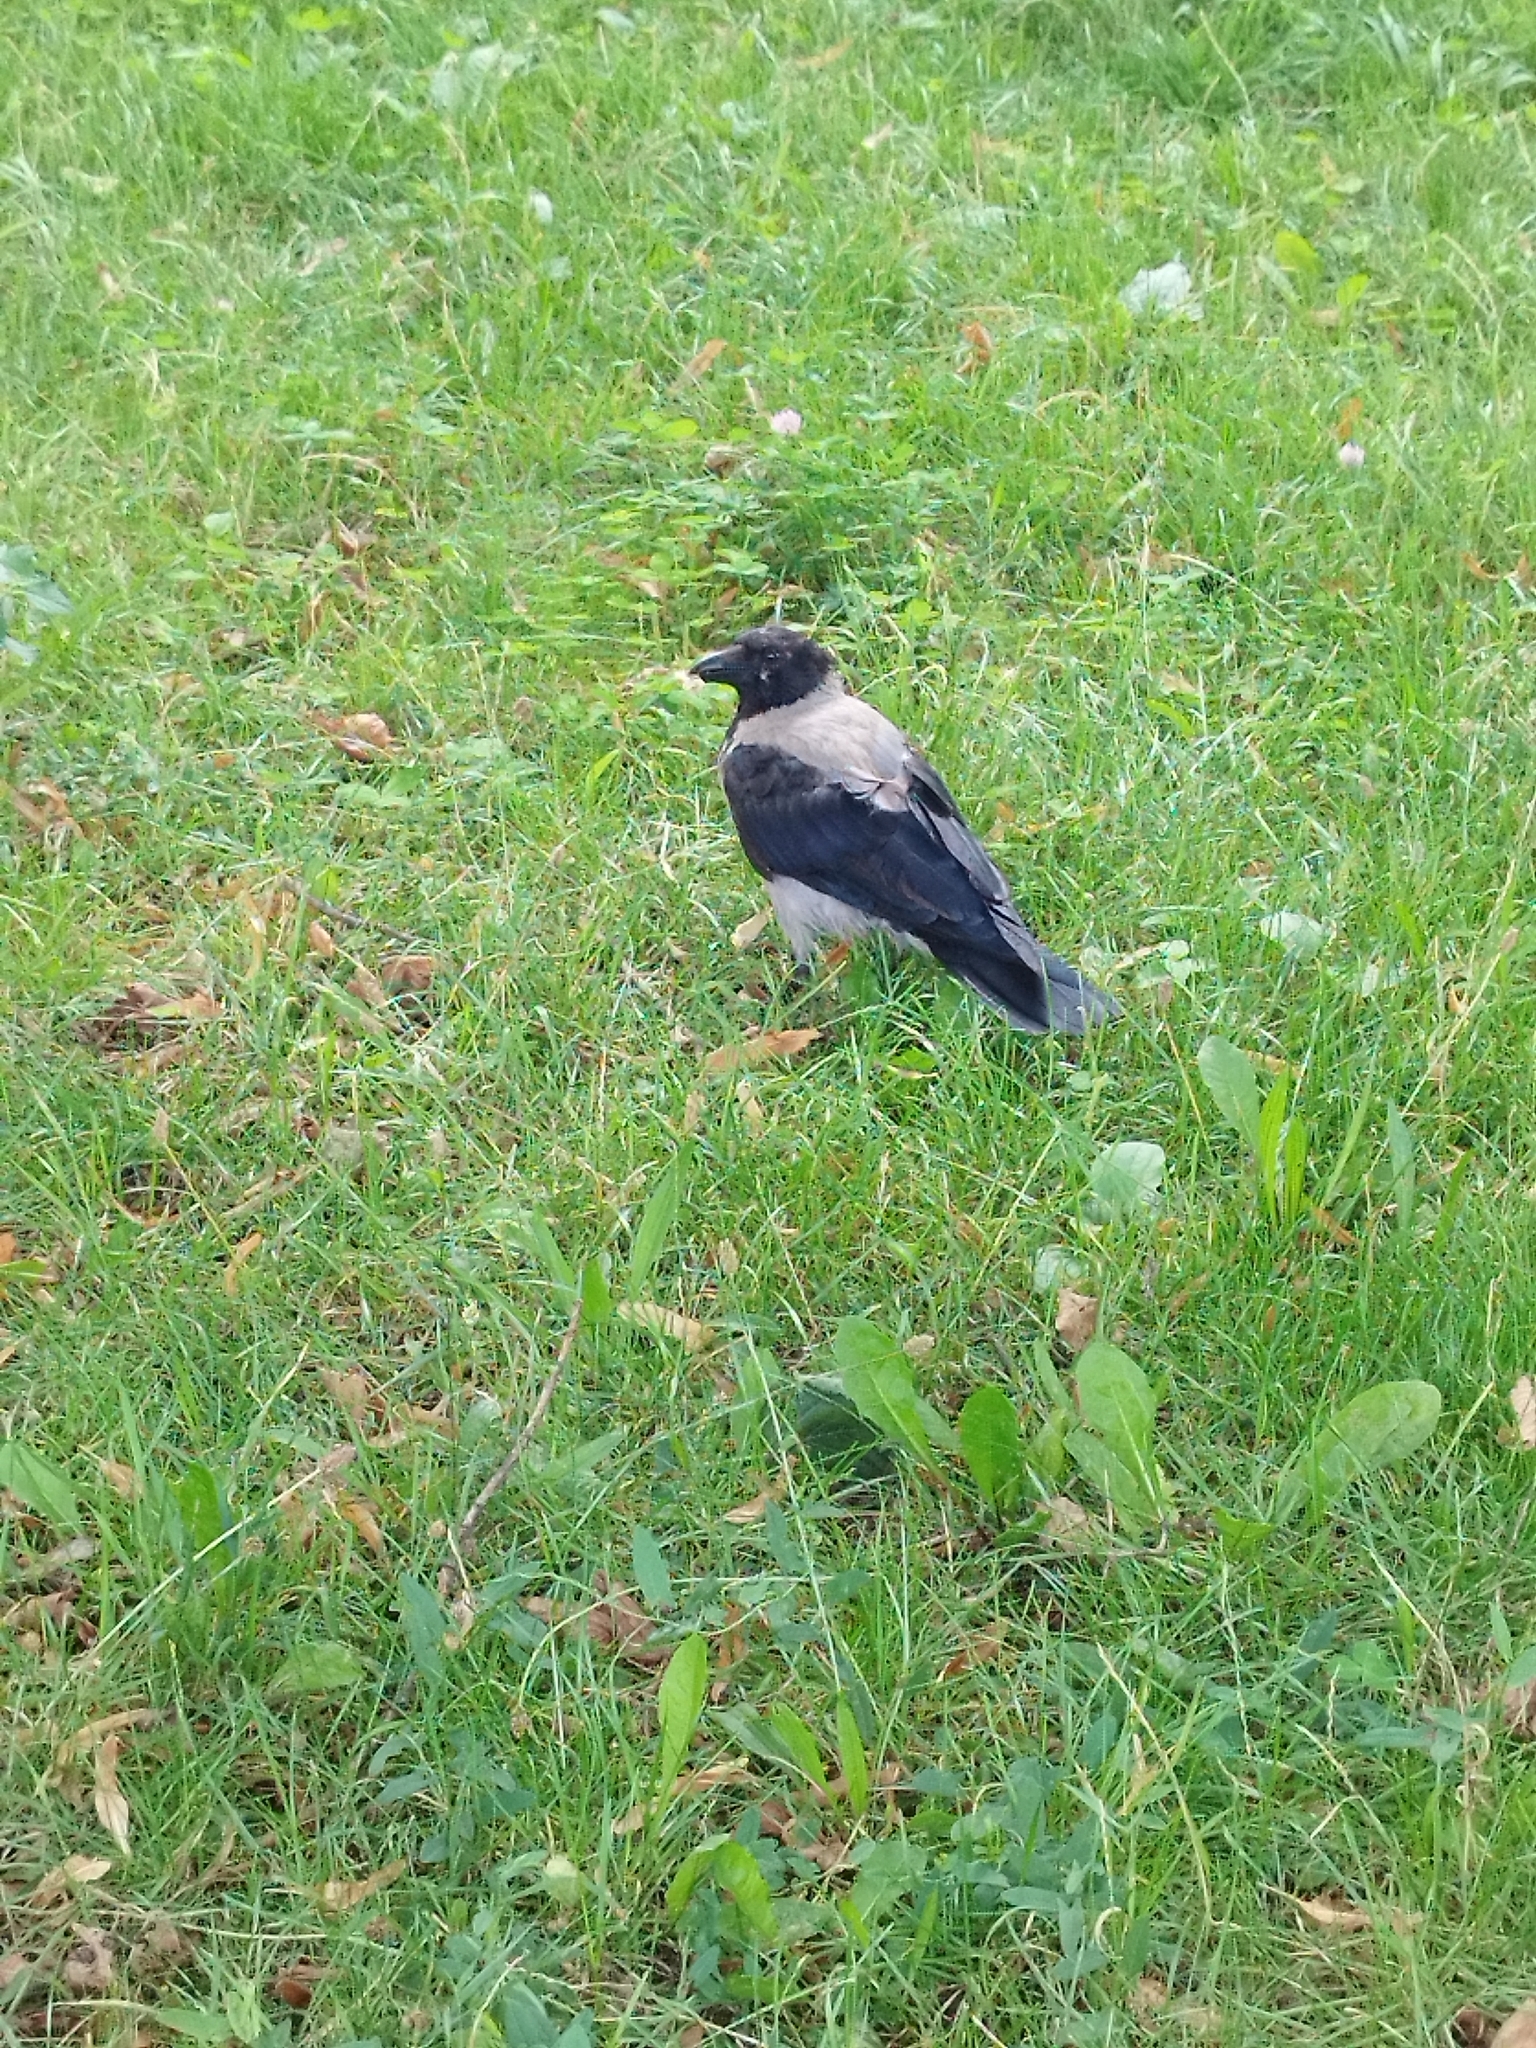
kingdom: Animalia
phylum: Chordata
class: Aves
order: Passeriformes
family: Corvidae
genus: Corvus
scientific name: Corvus cornix
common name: Hooded crow
